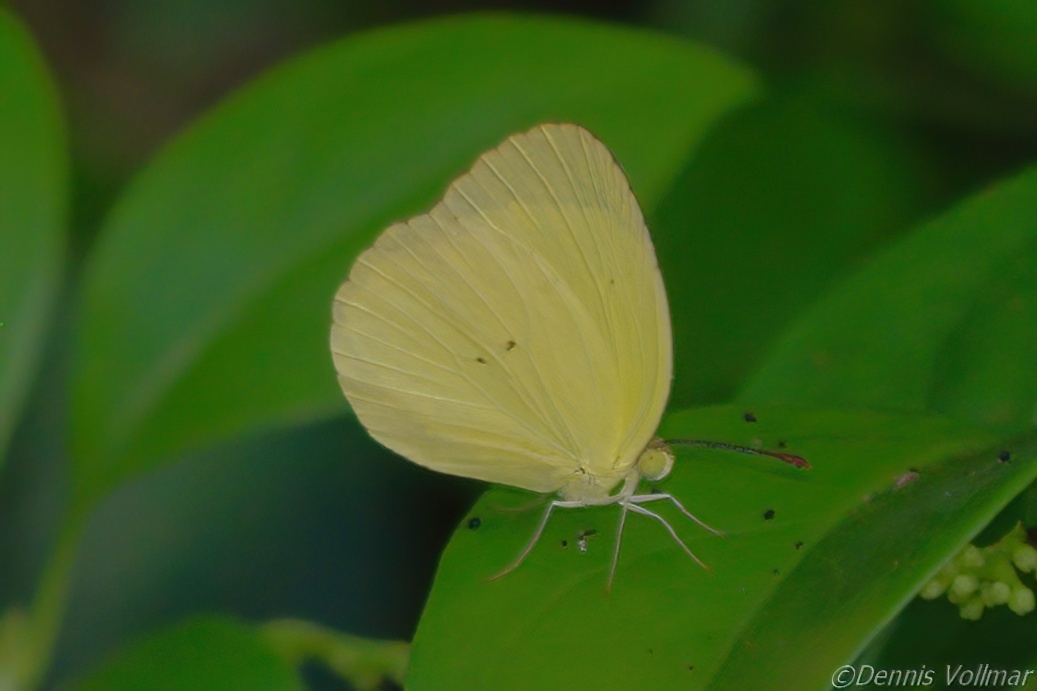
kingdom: Animalia
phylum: Arthropoda
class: Insecta
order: Lepidoptera
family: Pieridae
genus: Pyrisitia
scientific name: Pyrisitia nise
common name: Mimosa yellow
